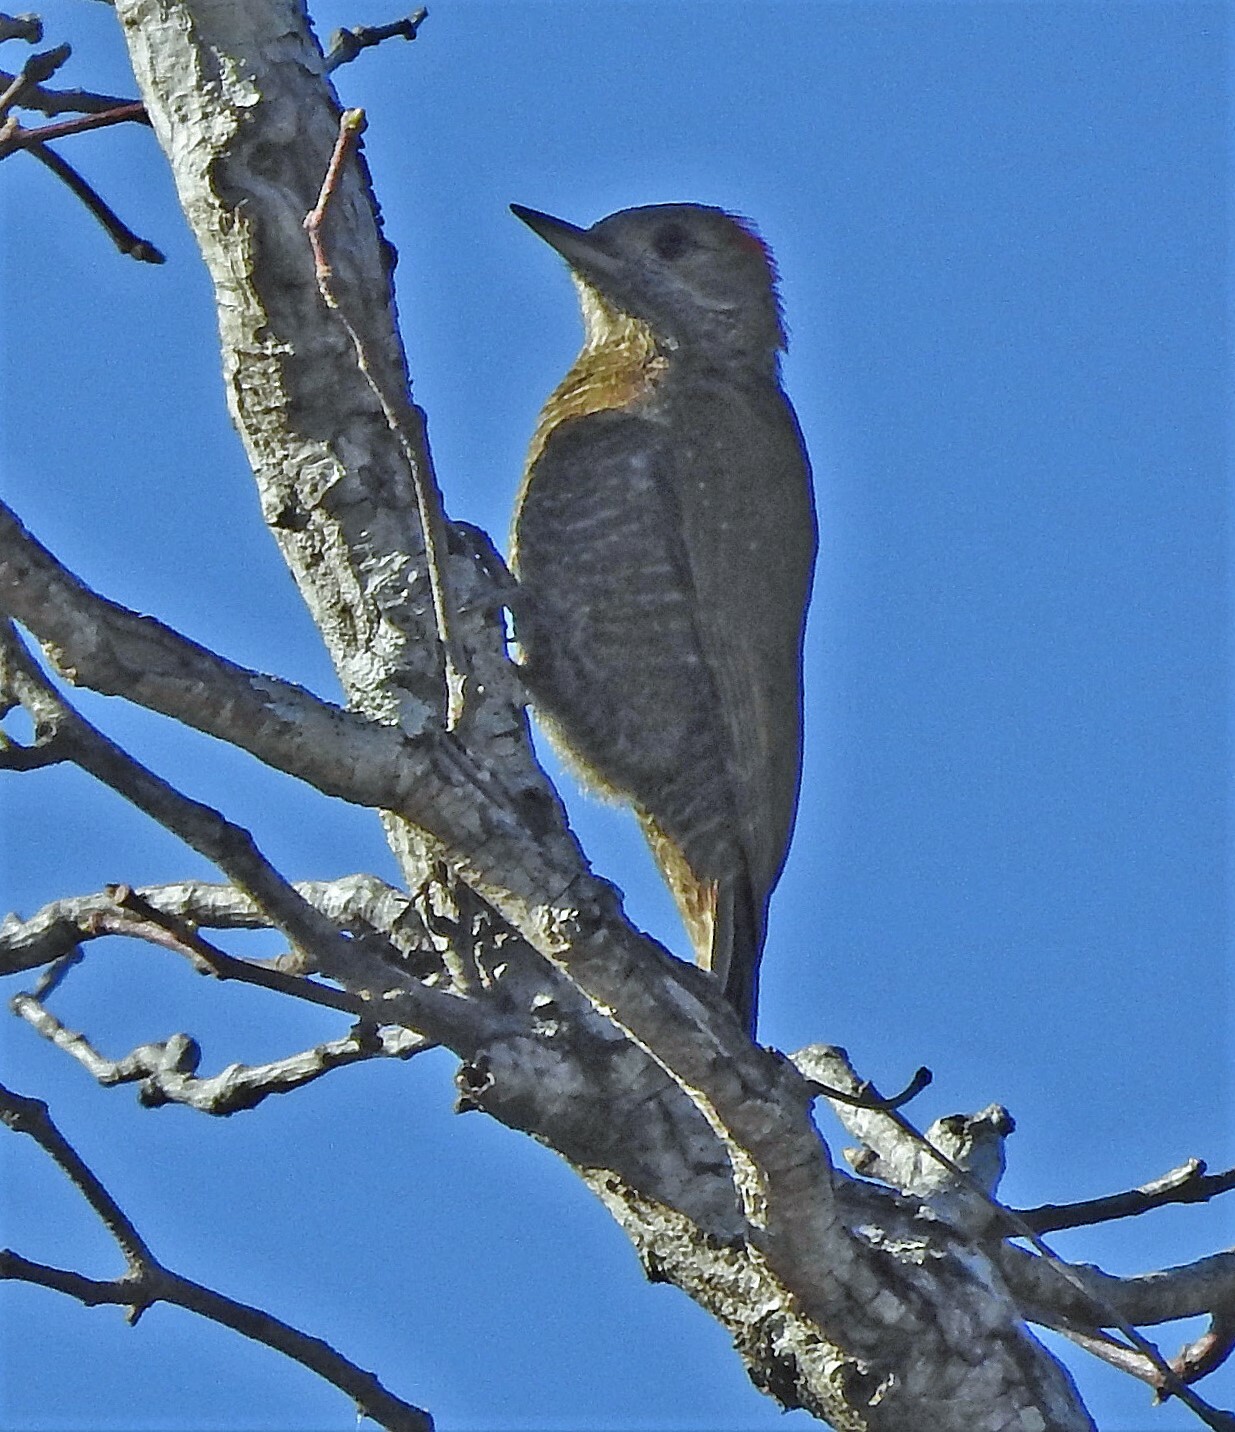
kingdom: Animalia
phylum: Chordata
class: Aves
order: Piciformes
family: Picidae
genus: Veniliornis
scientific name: Veniliornis passerinus
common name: Little woodpecker
